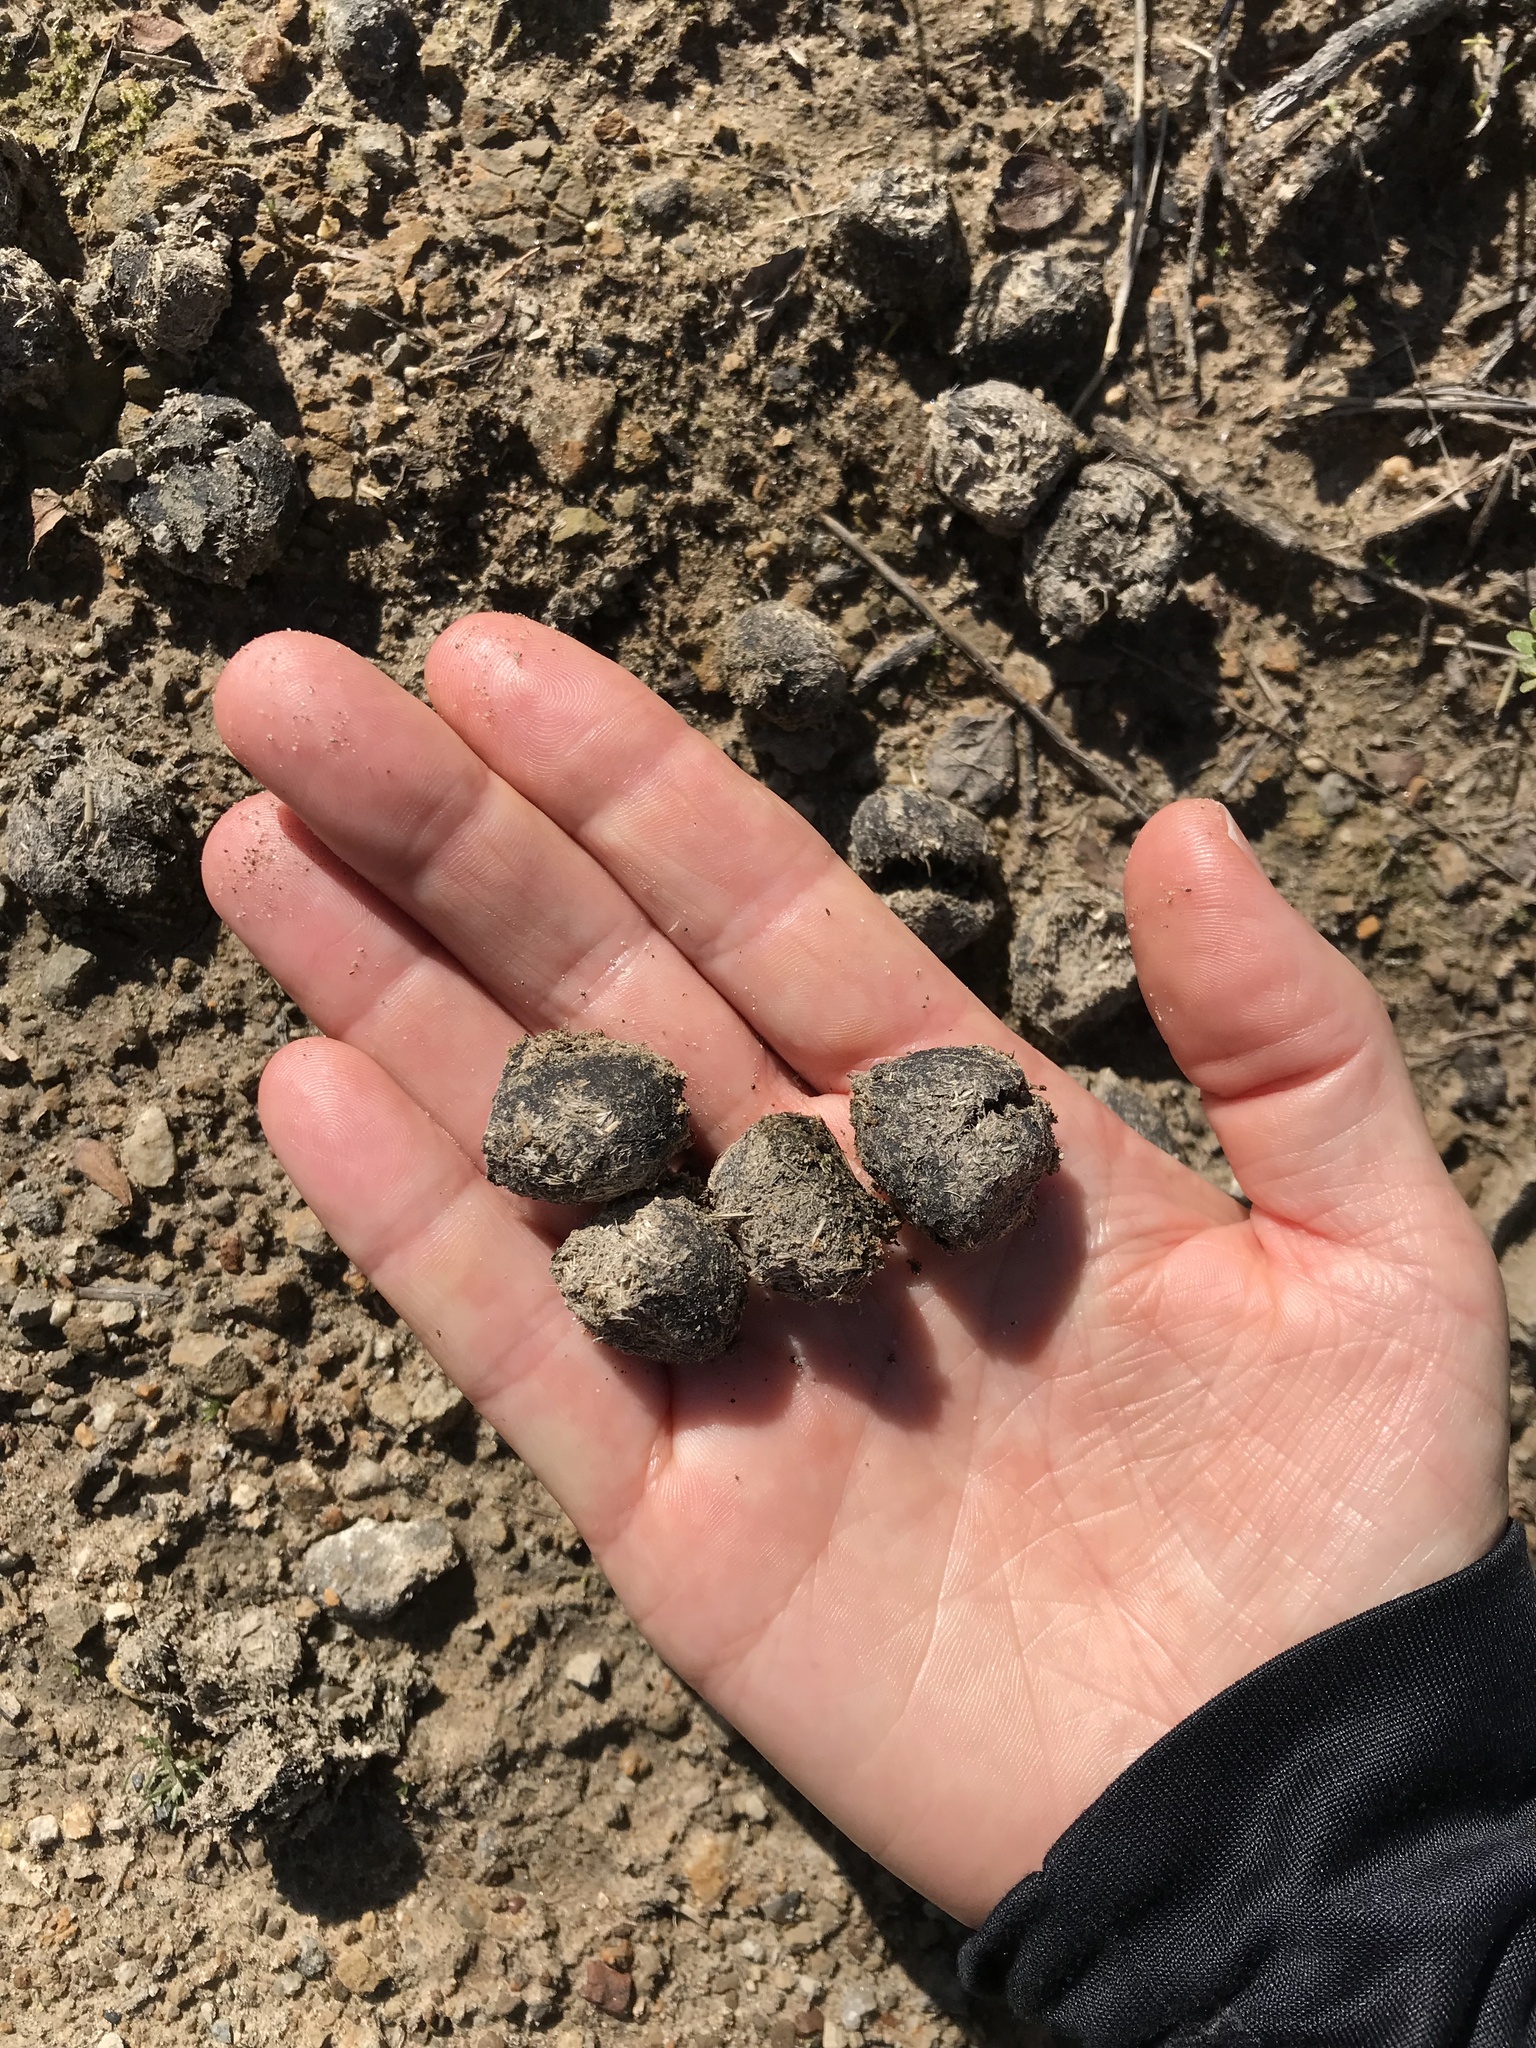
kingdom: Animalia
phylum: Chordata
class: Mammalia
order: Artiodactyla
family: Cervidae
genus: Cervus
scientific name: Cervus elaphus
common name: Red deer
